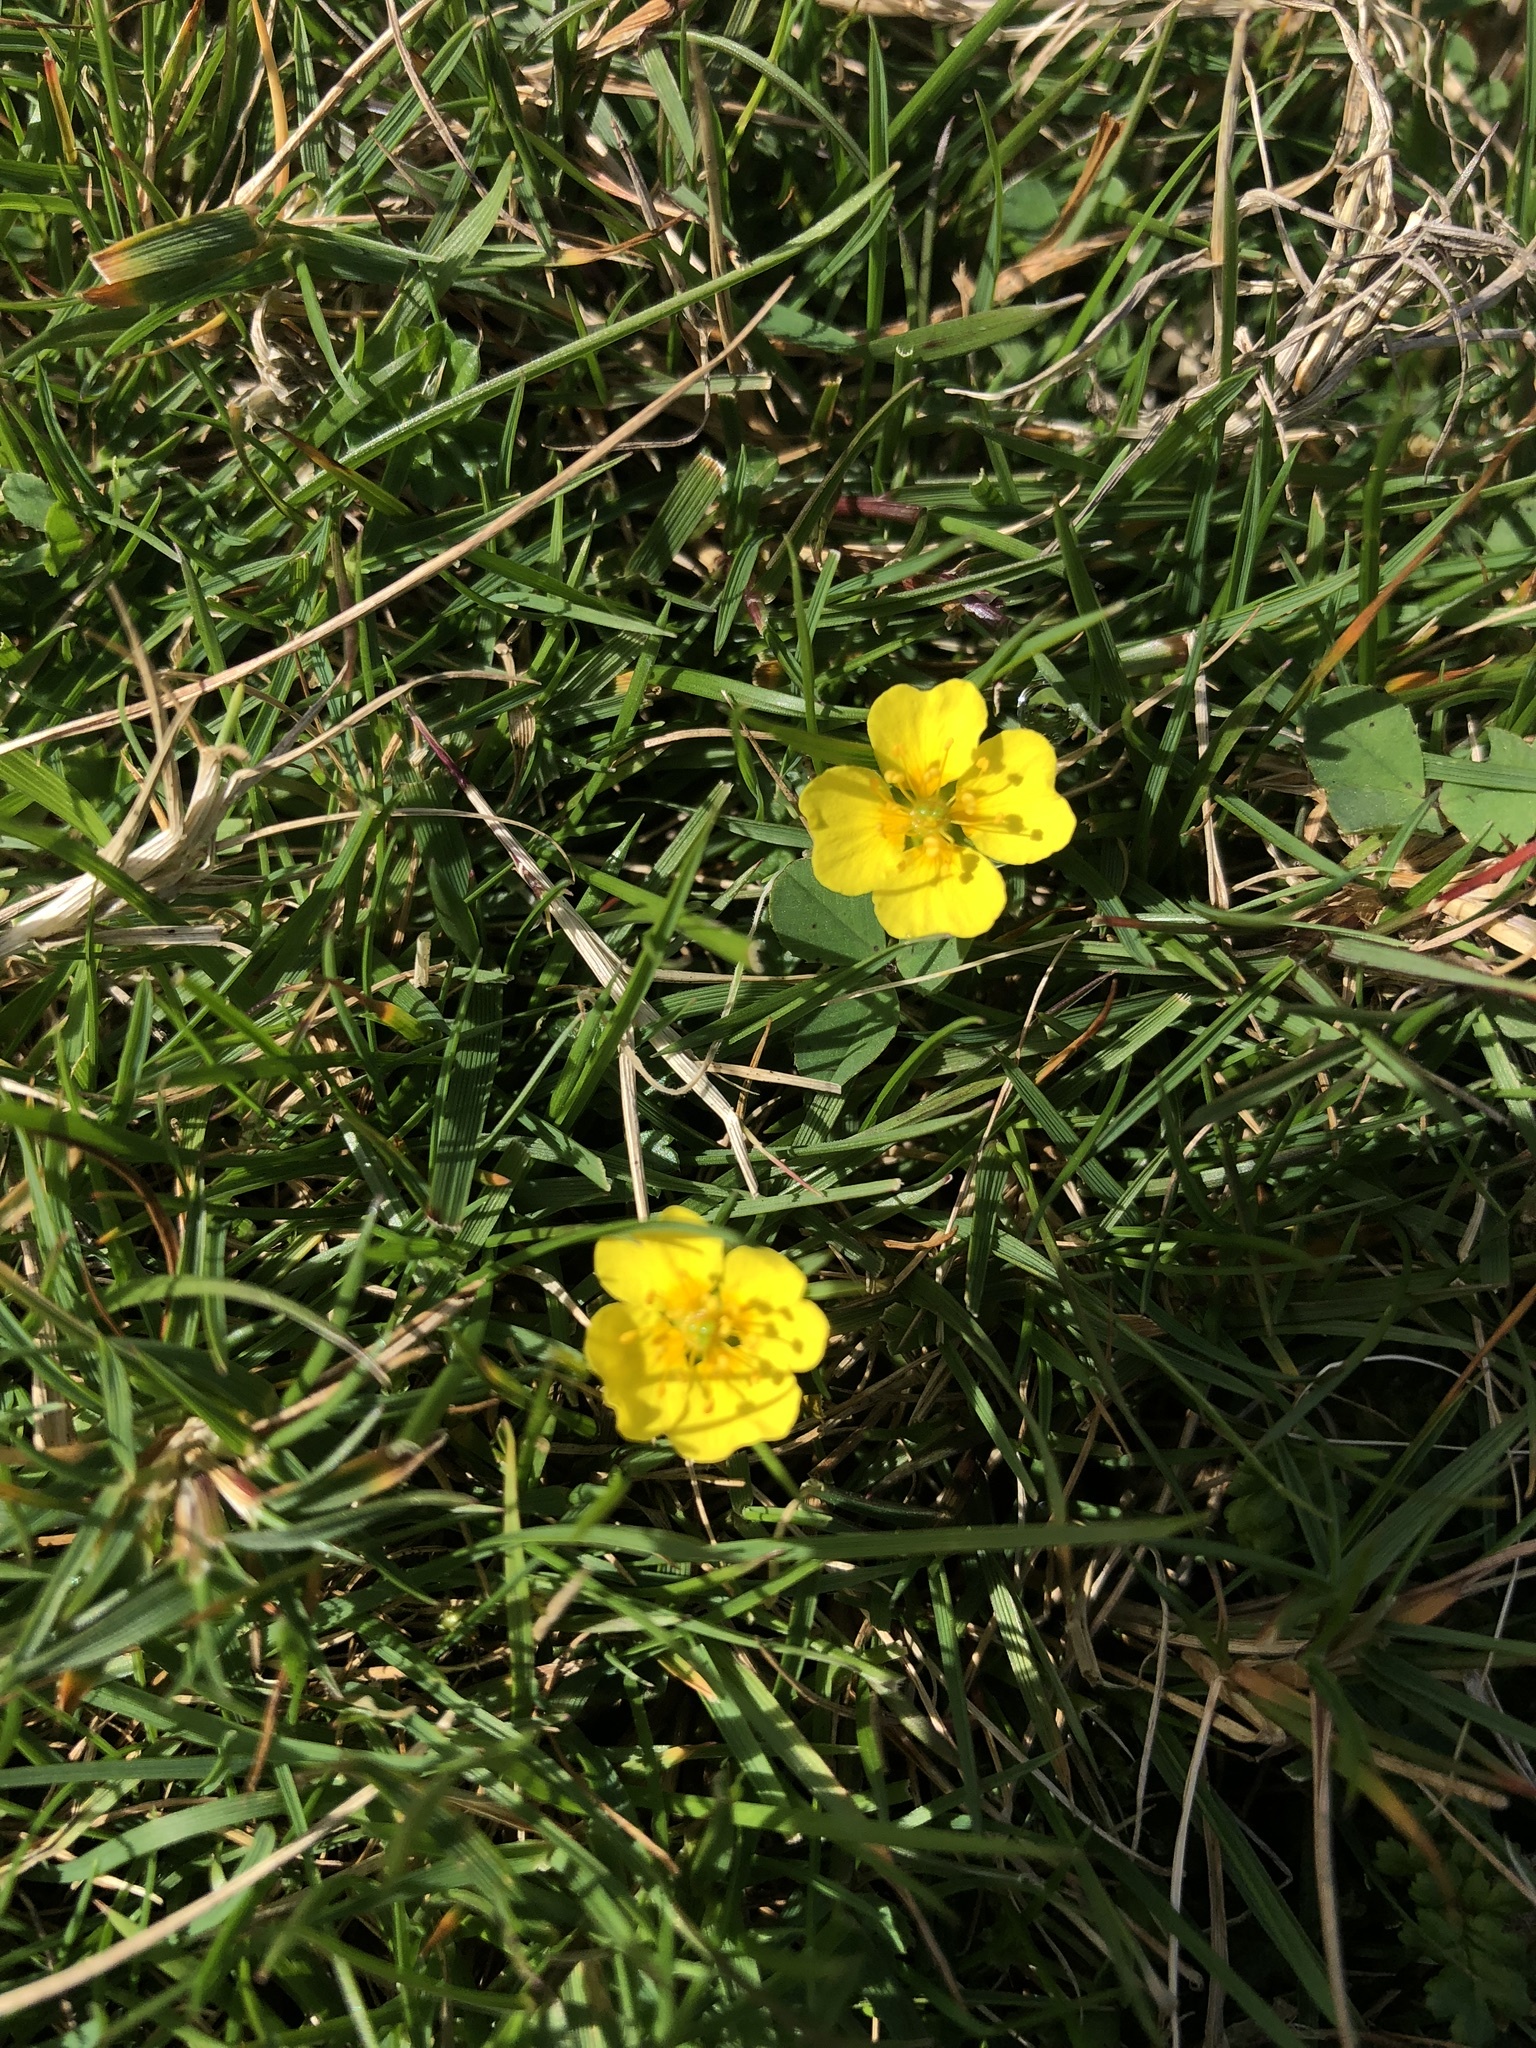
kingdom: Plantae
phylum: Tracheophyta
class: Magnoliopsida
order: Rosales
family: Rosaceae
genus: Potentilla
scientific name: Potentilla erecta
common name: Tormentil
